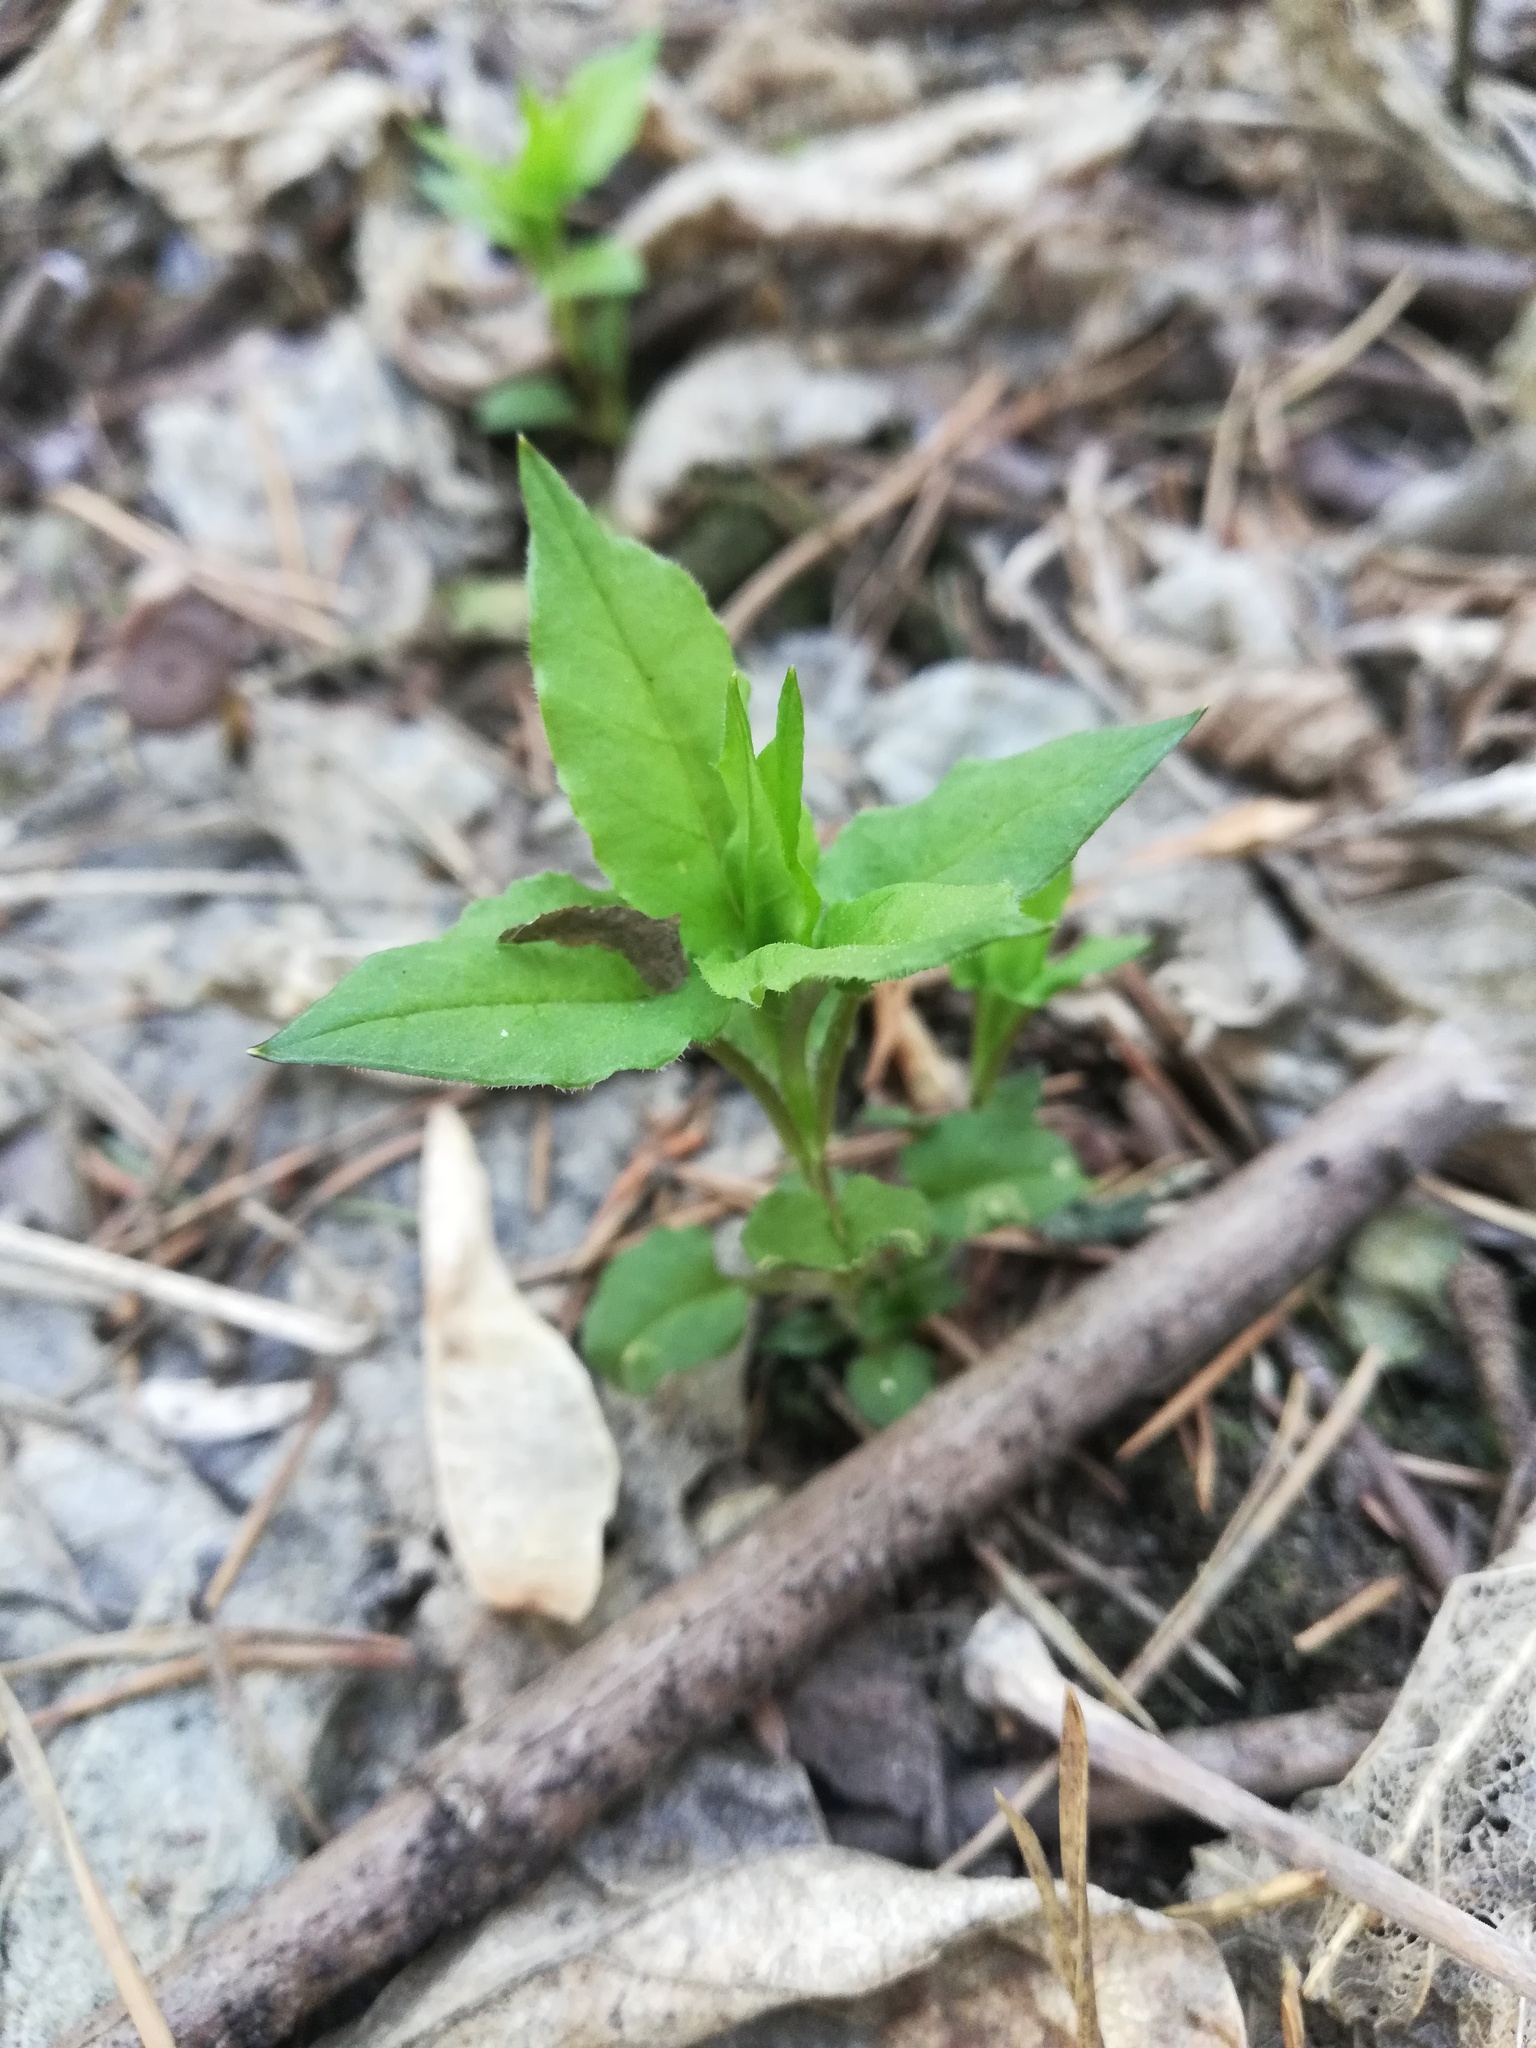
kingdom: Plantae
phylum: Tracheophyta
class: Magnoliopsida
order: Caryophyllales
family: Caryophyllaceae
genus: Stellaria
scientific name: Stellaria bungeana
